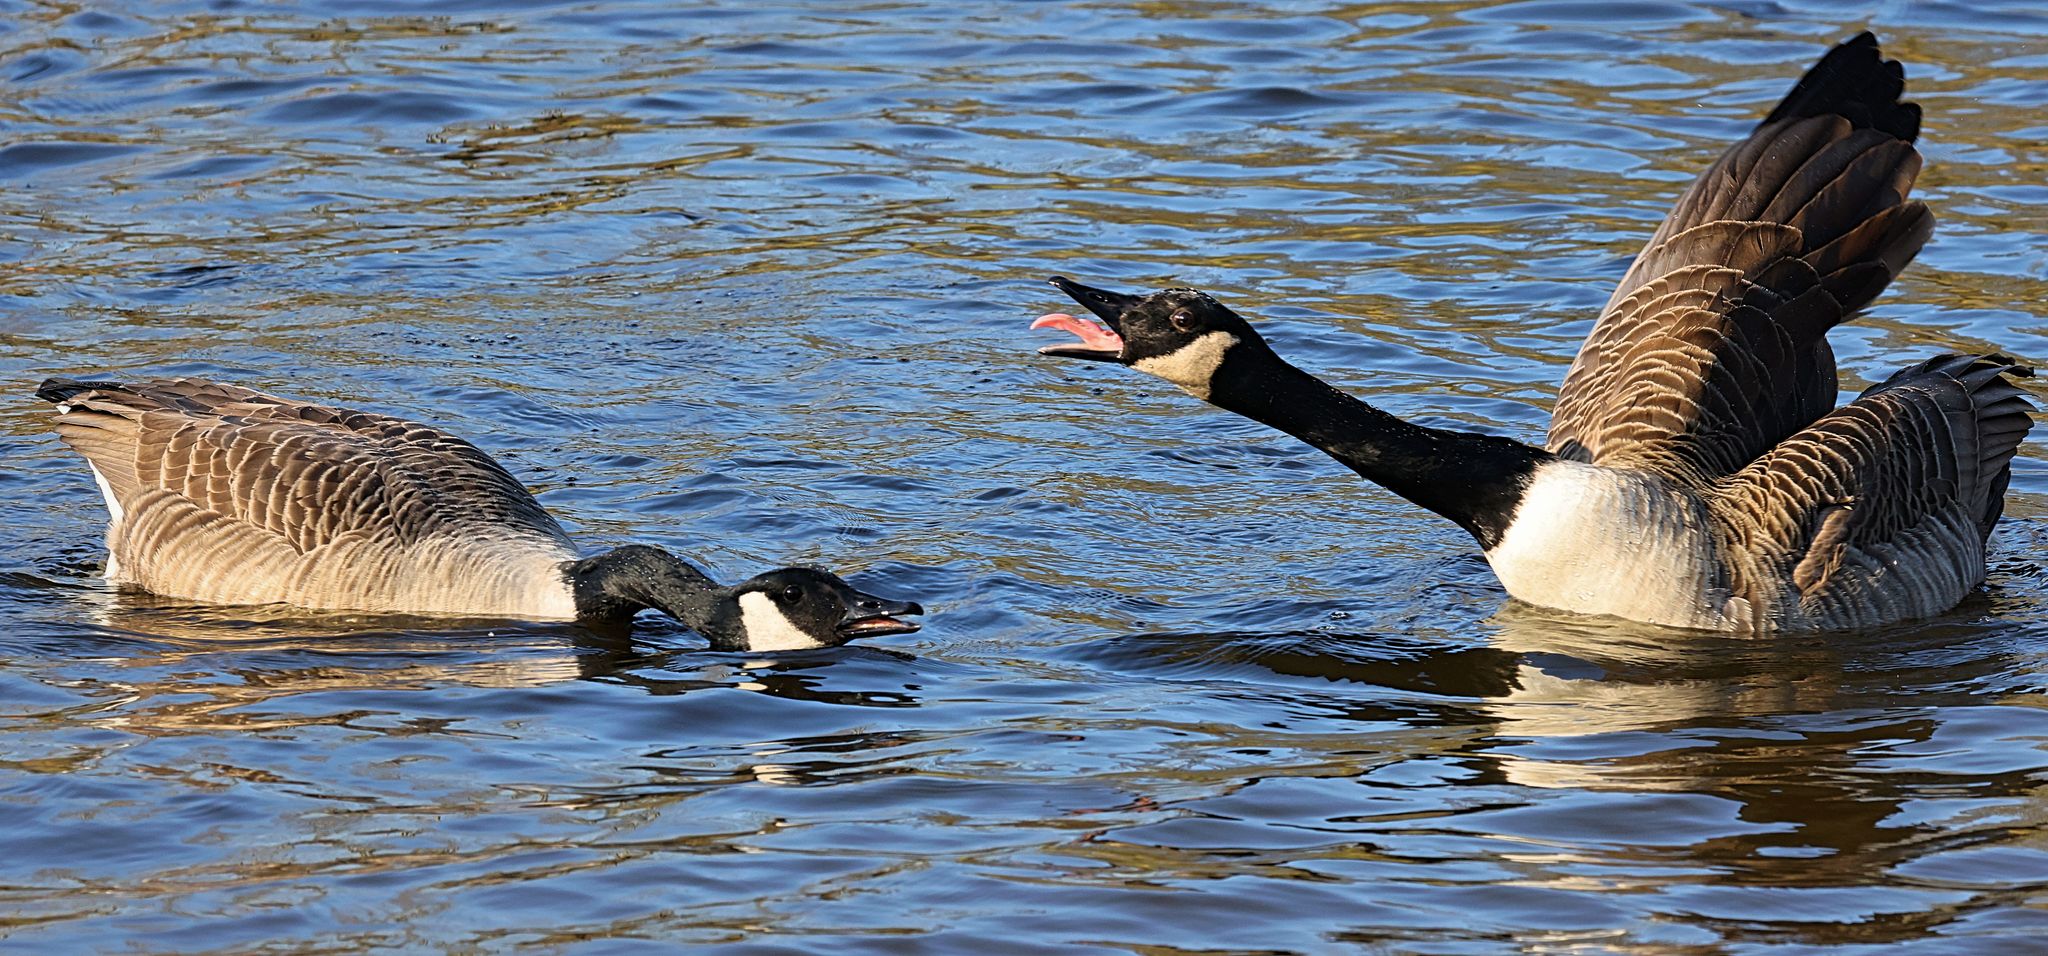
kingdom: Animalia
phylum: Chordata
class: Aves
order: Anseriformes
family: Anatidae
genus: Branta
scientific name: Branta canadensis
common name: Canada goose
